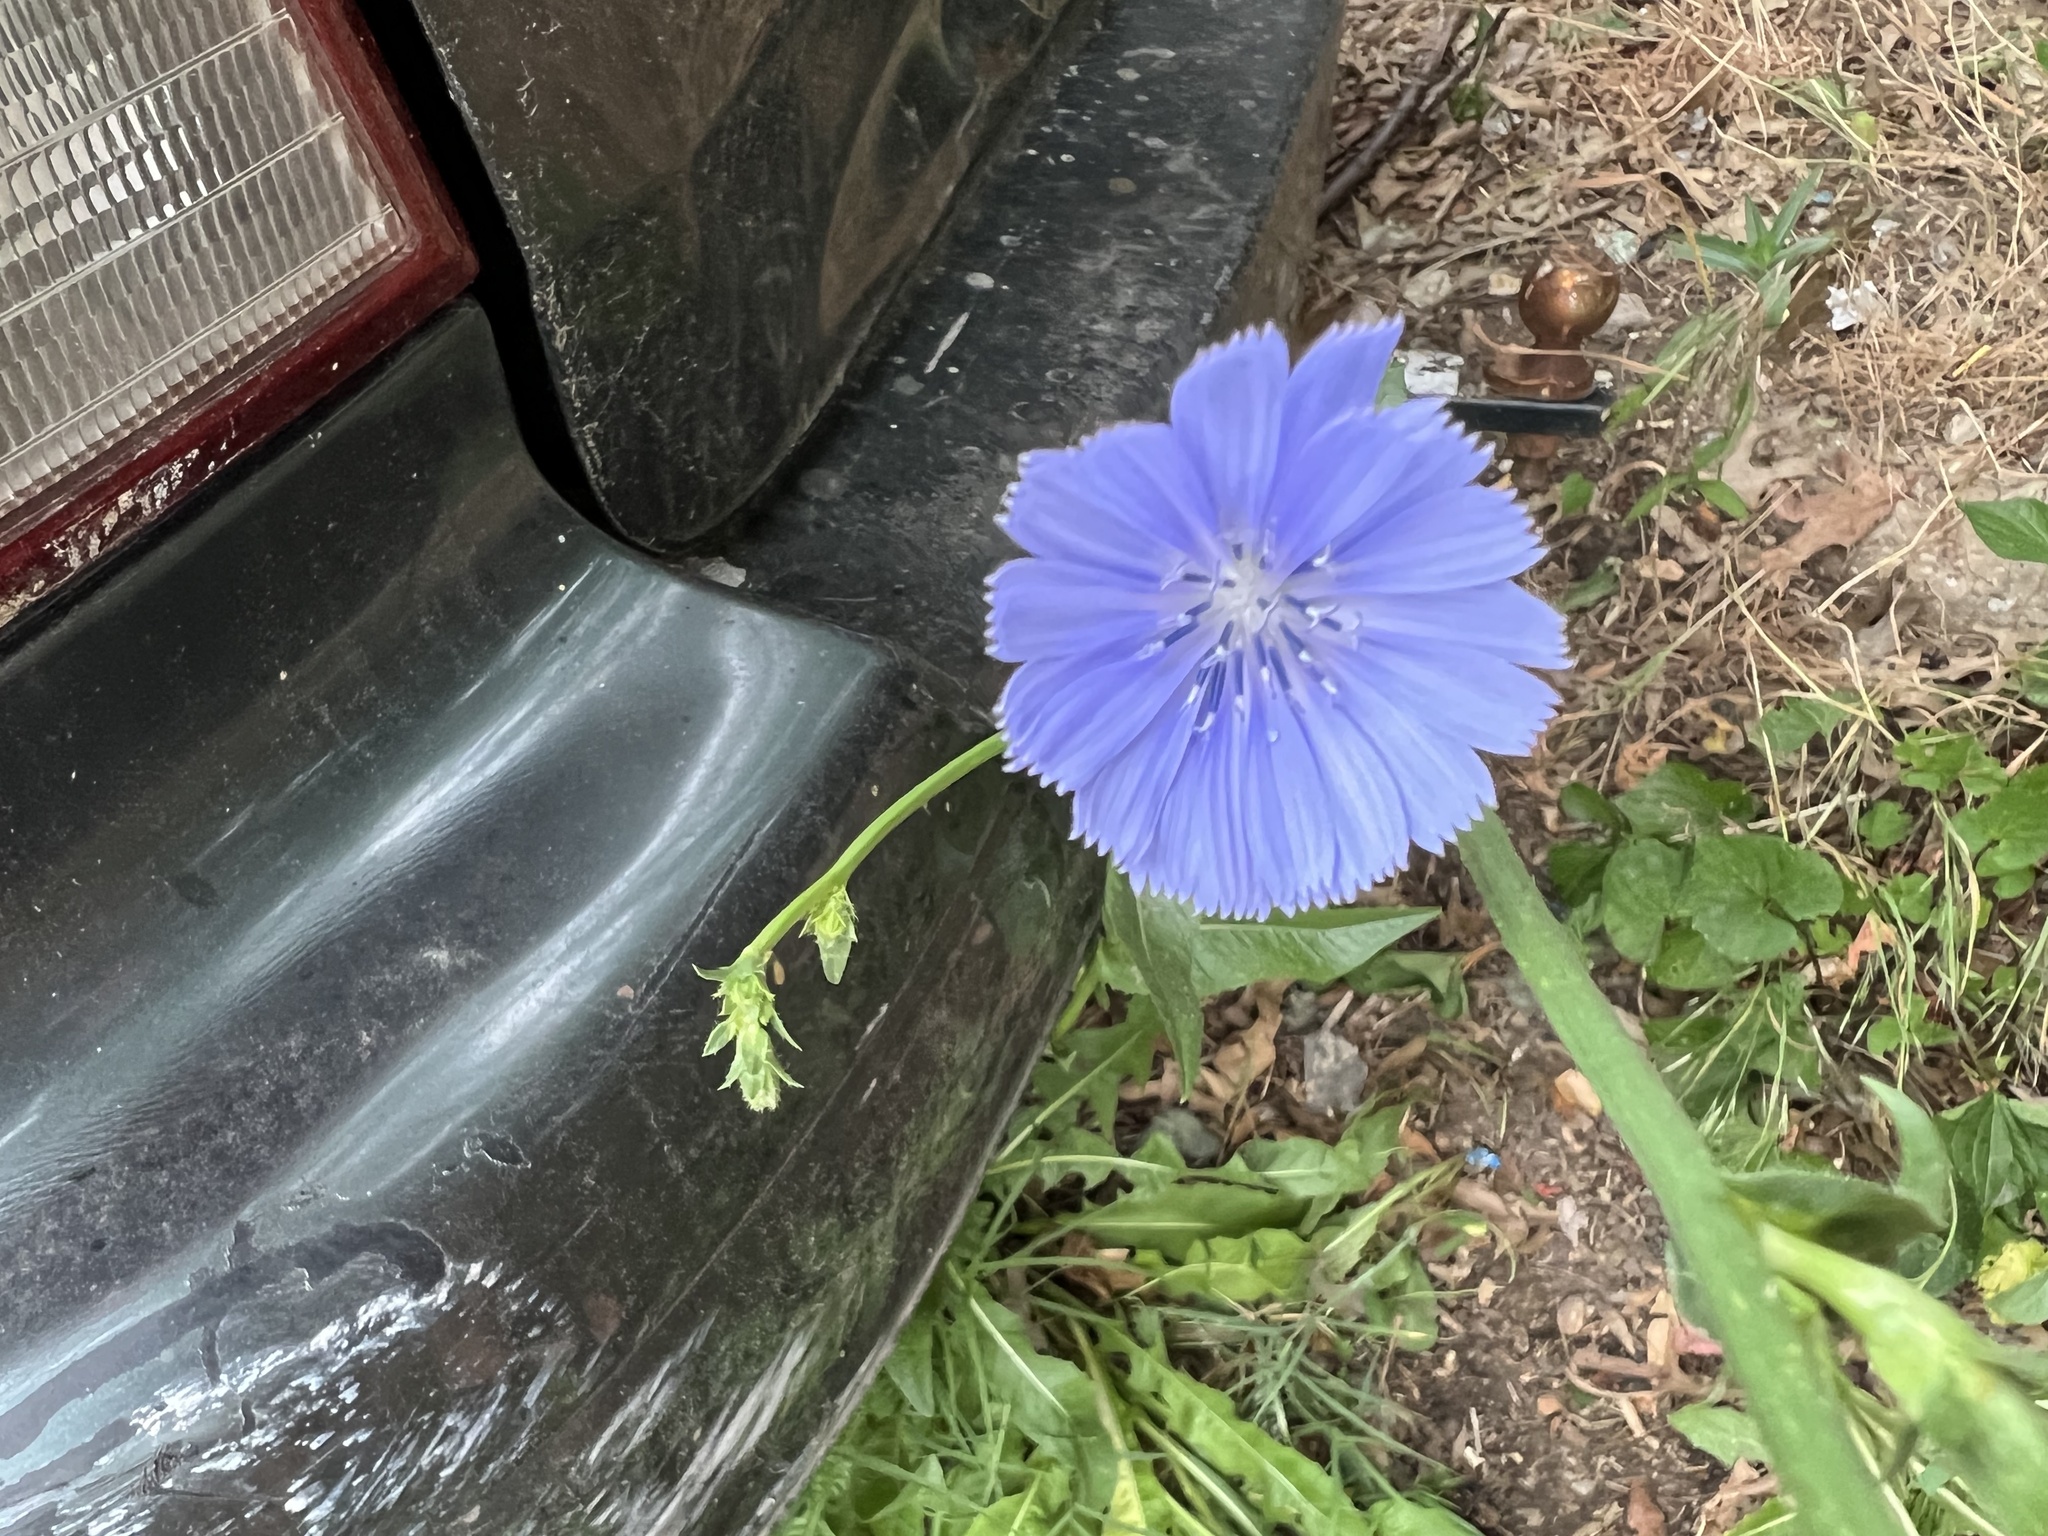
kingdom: Plantae
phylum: Tracheophyta
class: Magnoliopsida
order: Asterales
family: Asteraceae
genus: Cichorium
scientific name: Cichorium intybus
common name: Chicory
